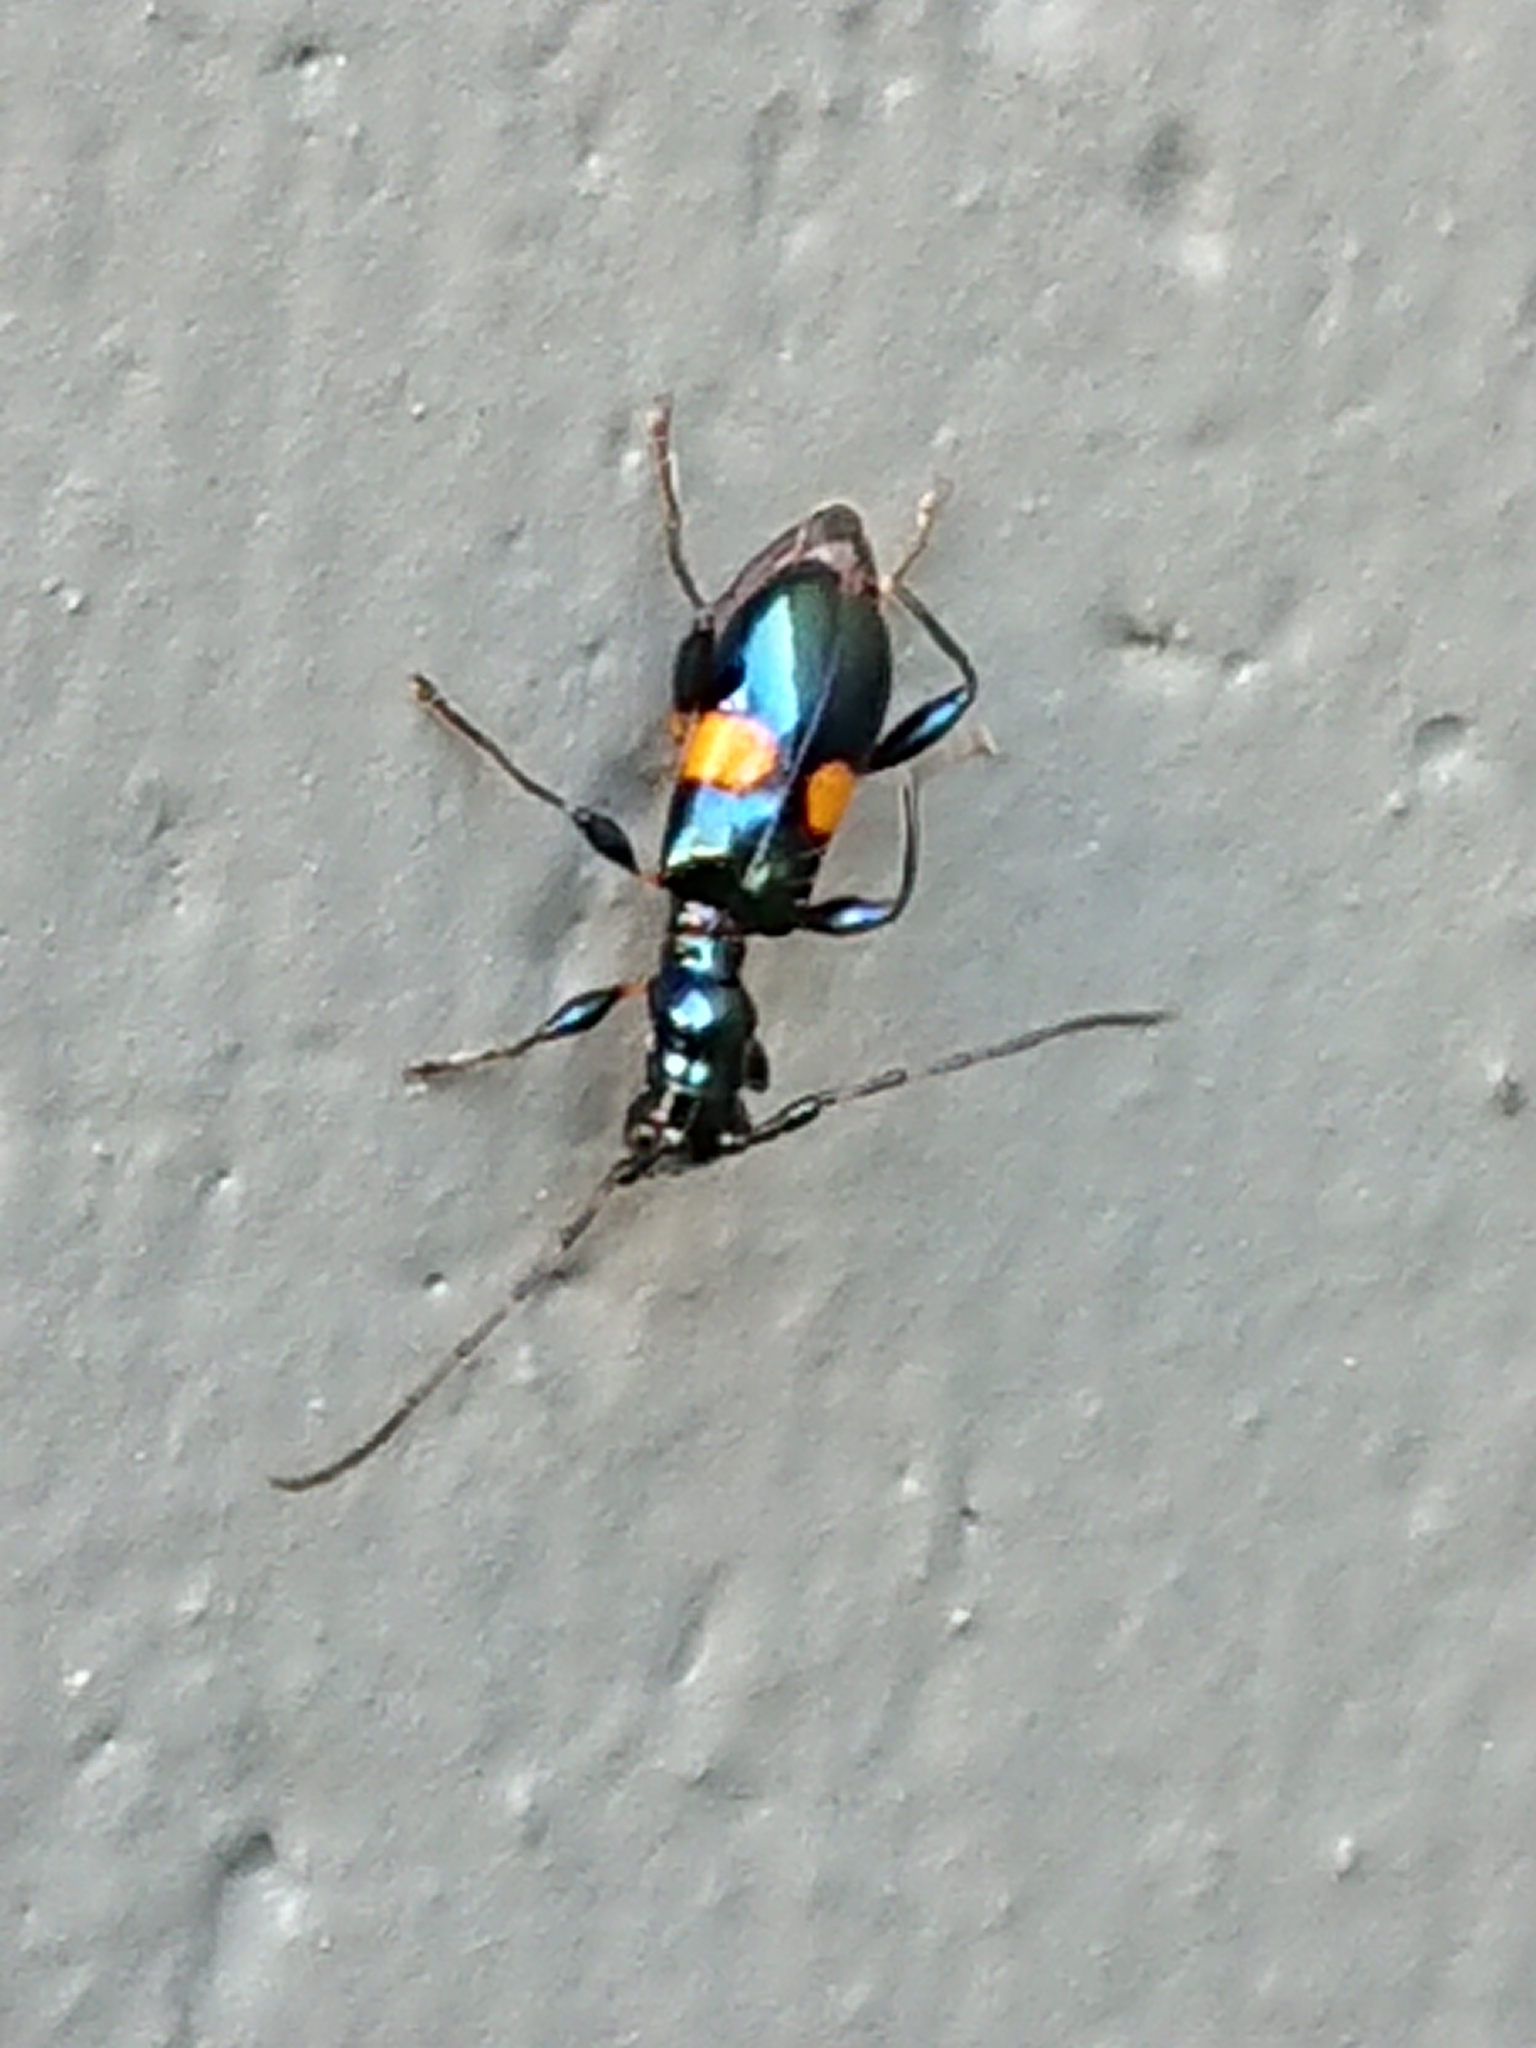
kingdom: Animalia
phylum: Arthropoda
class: Insecta
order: Coleoptera
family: Cerambycidae
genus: Zorion
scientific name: Zorion guttigerum
